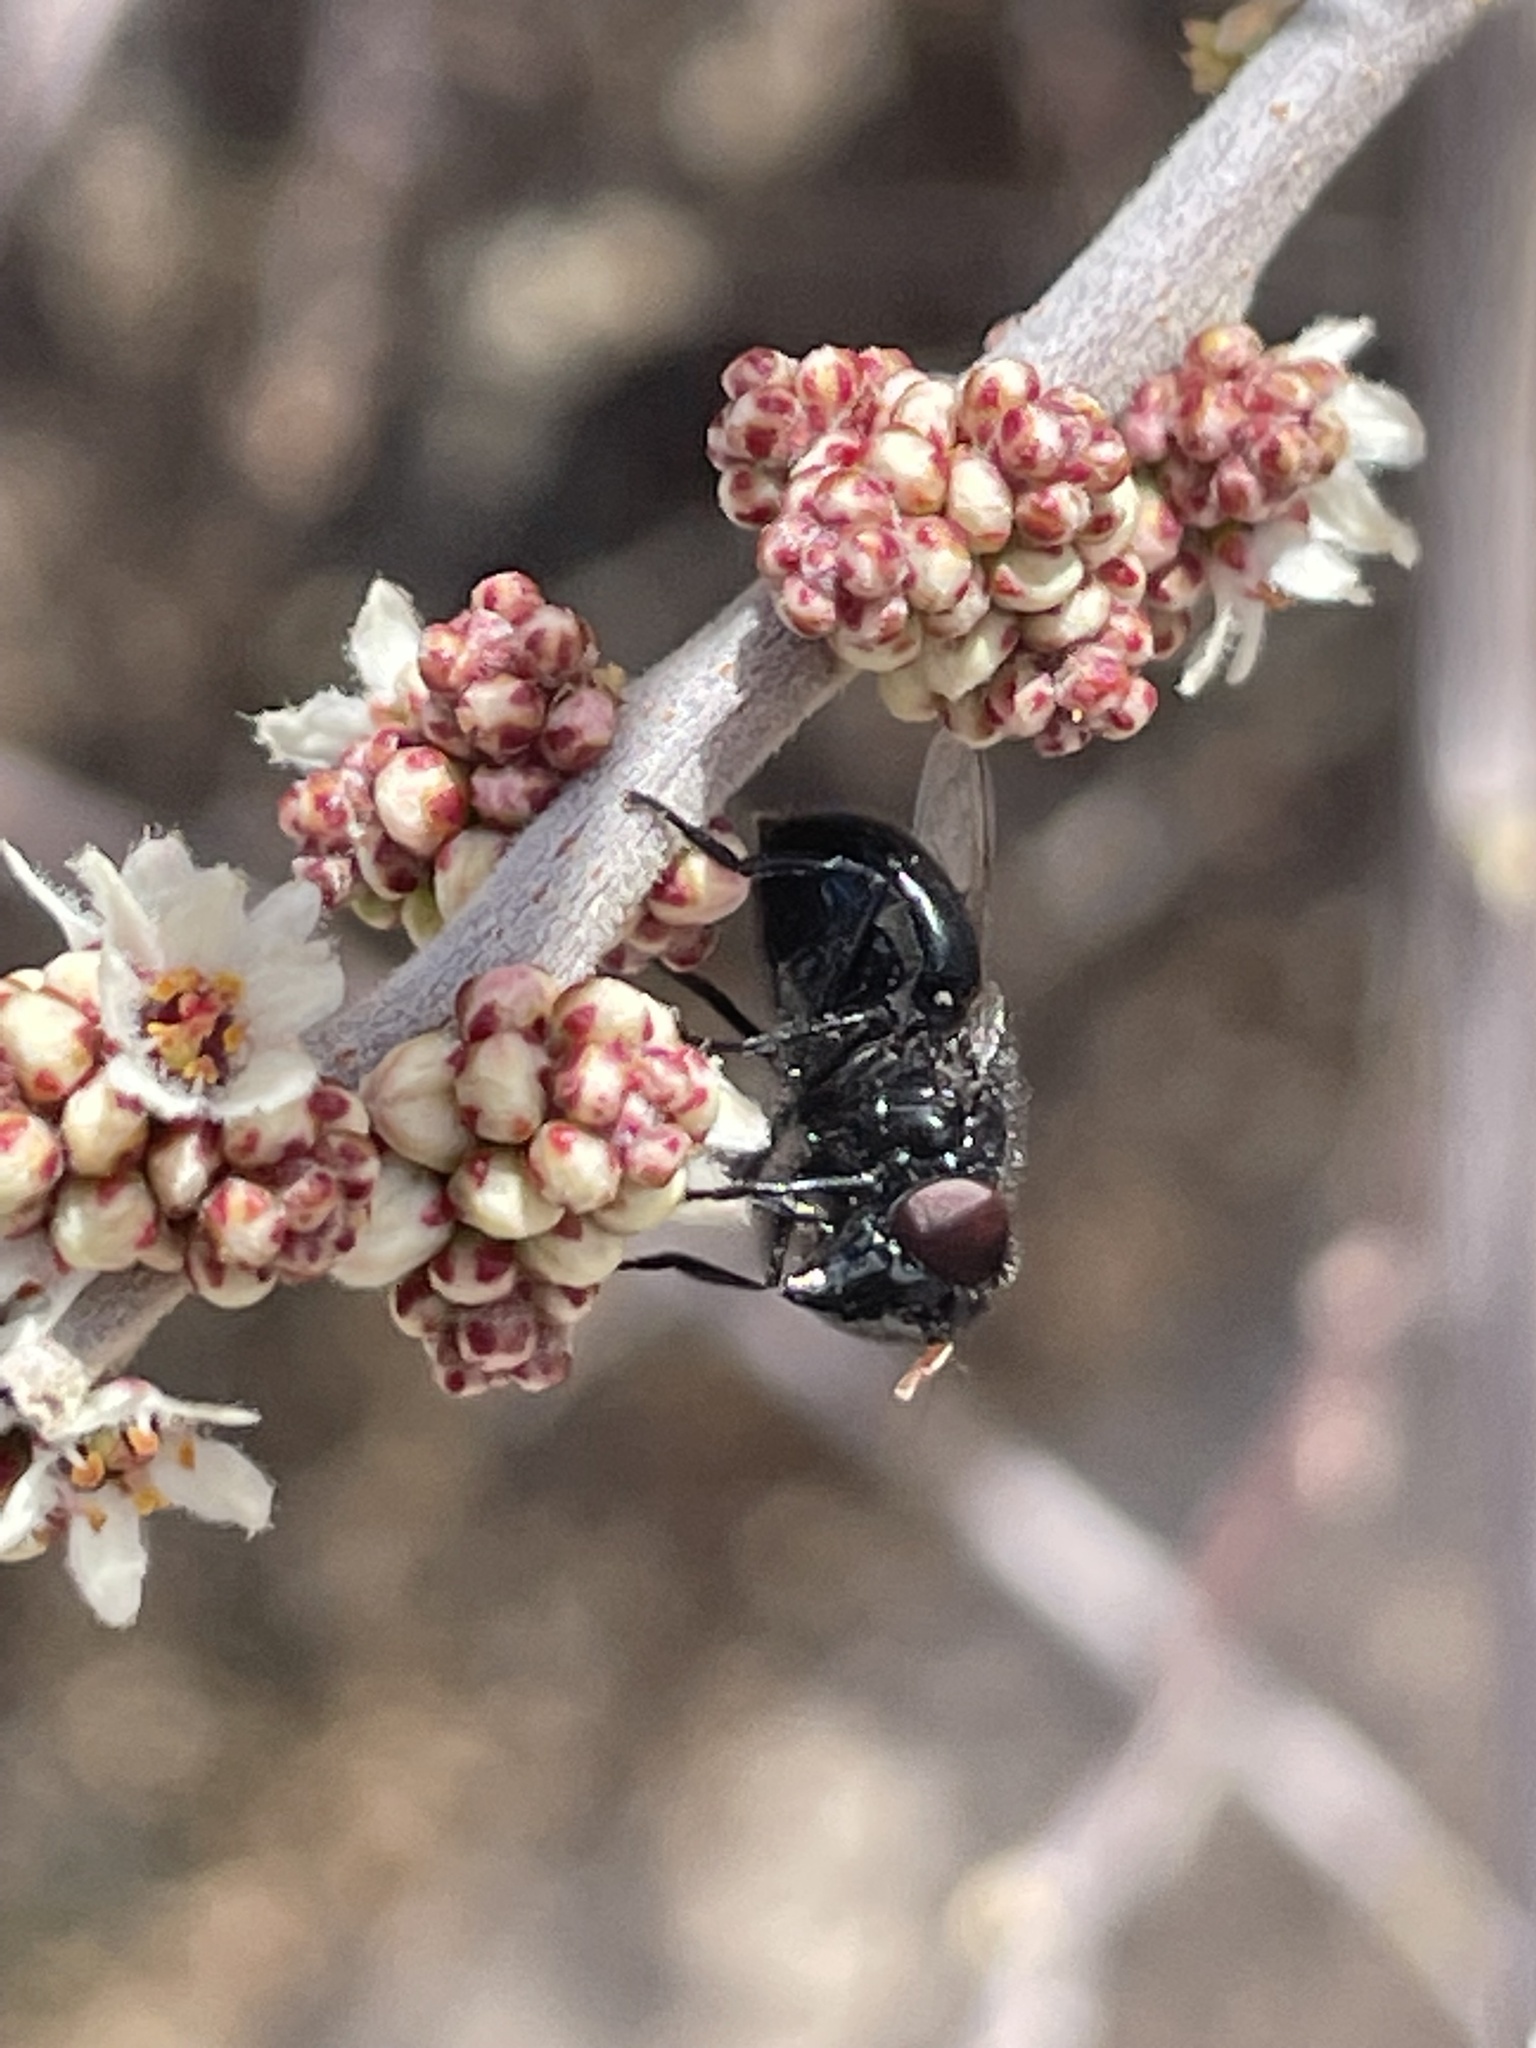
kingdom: Animalia
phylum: Arthropoda
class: Insecta
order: Diptera
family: Syrphidae
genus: Copestylum
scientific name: Copestylum comstocki
